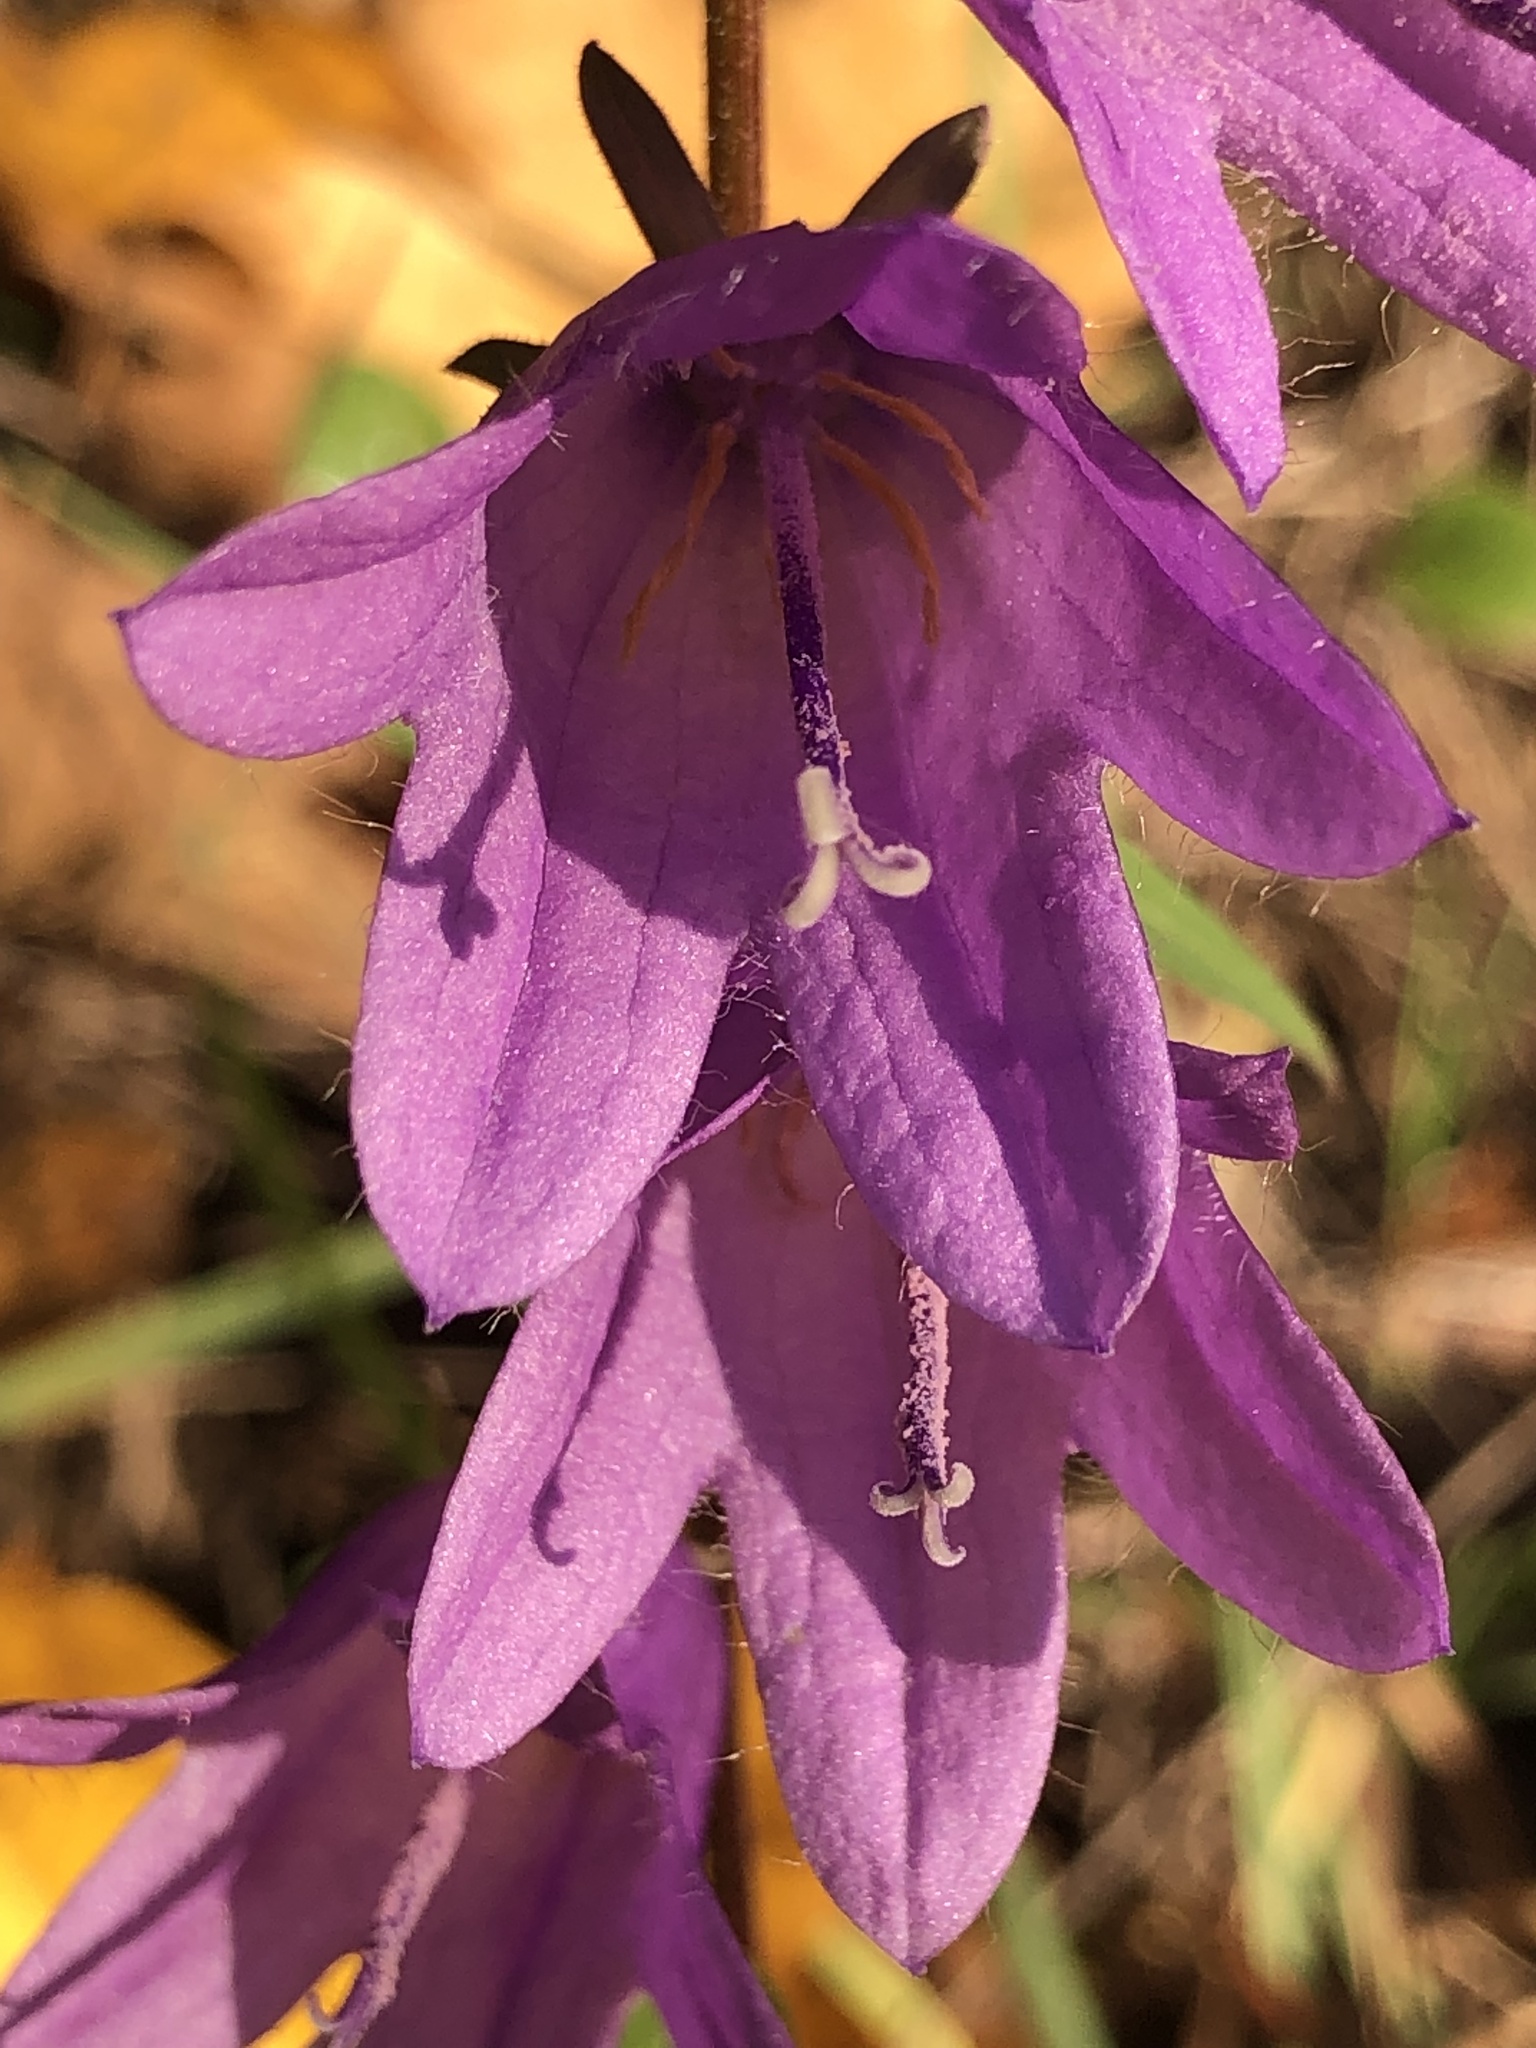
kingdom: Plantae
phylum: Tracheophyta
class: Magnoliopsida
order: Asterales
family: Campanulaceae
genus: Campanula
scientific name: Campanula rapunculoides
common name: Creeping bellflower
